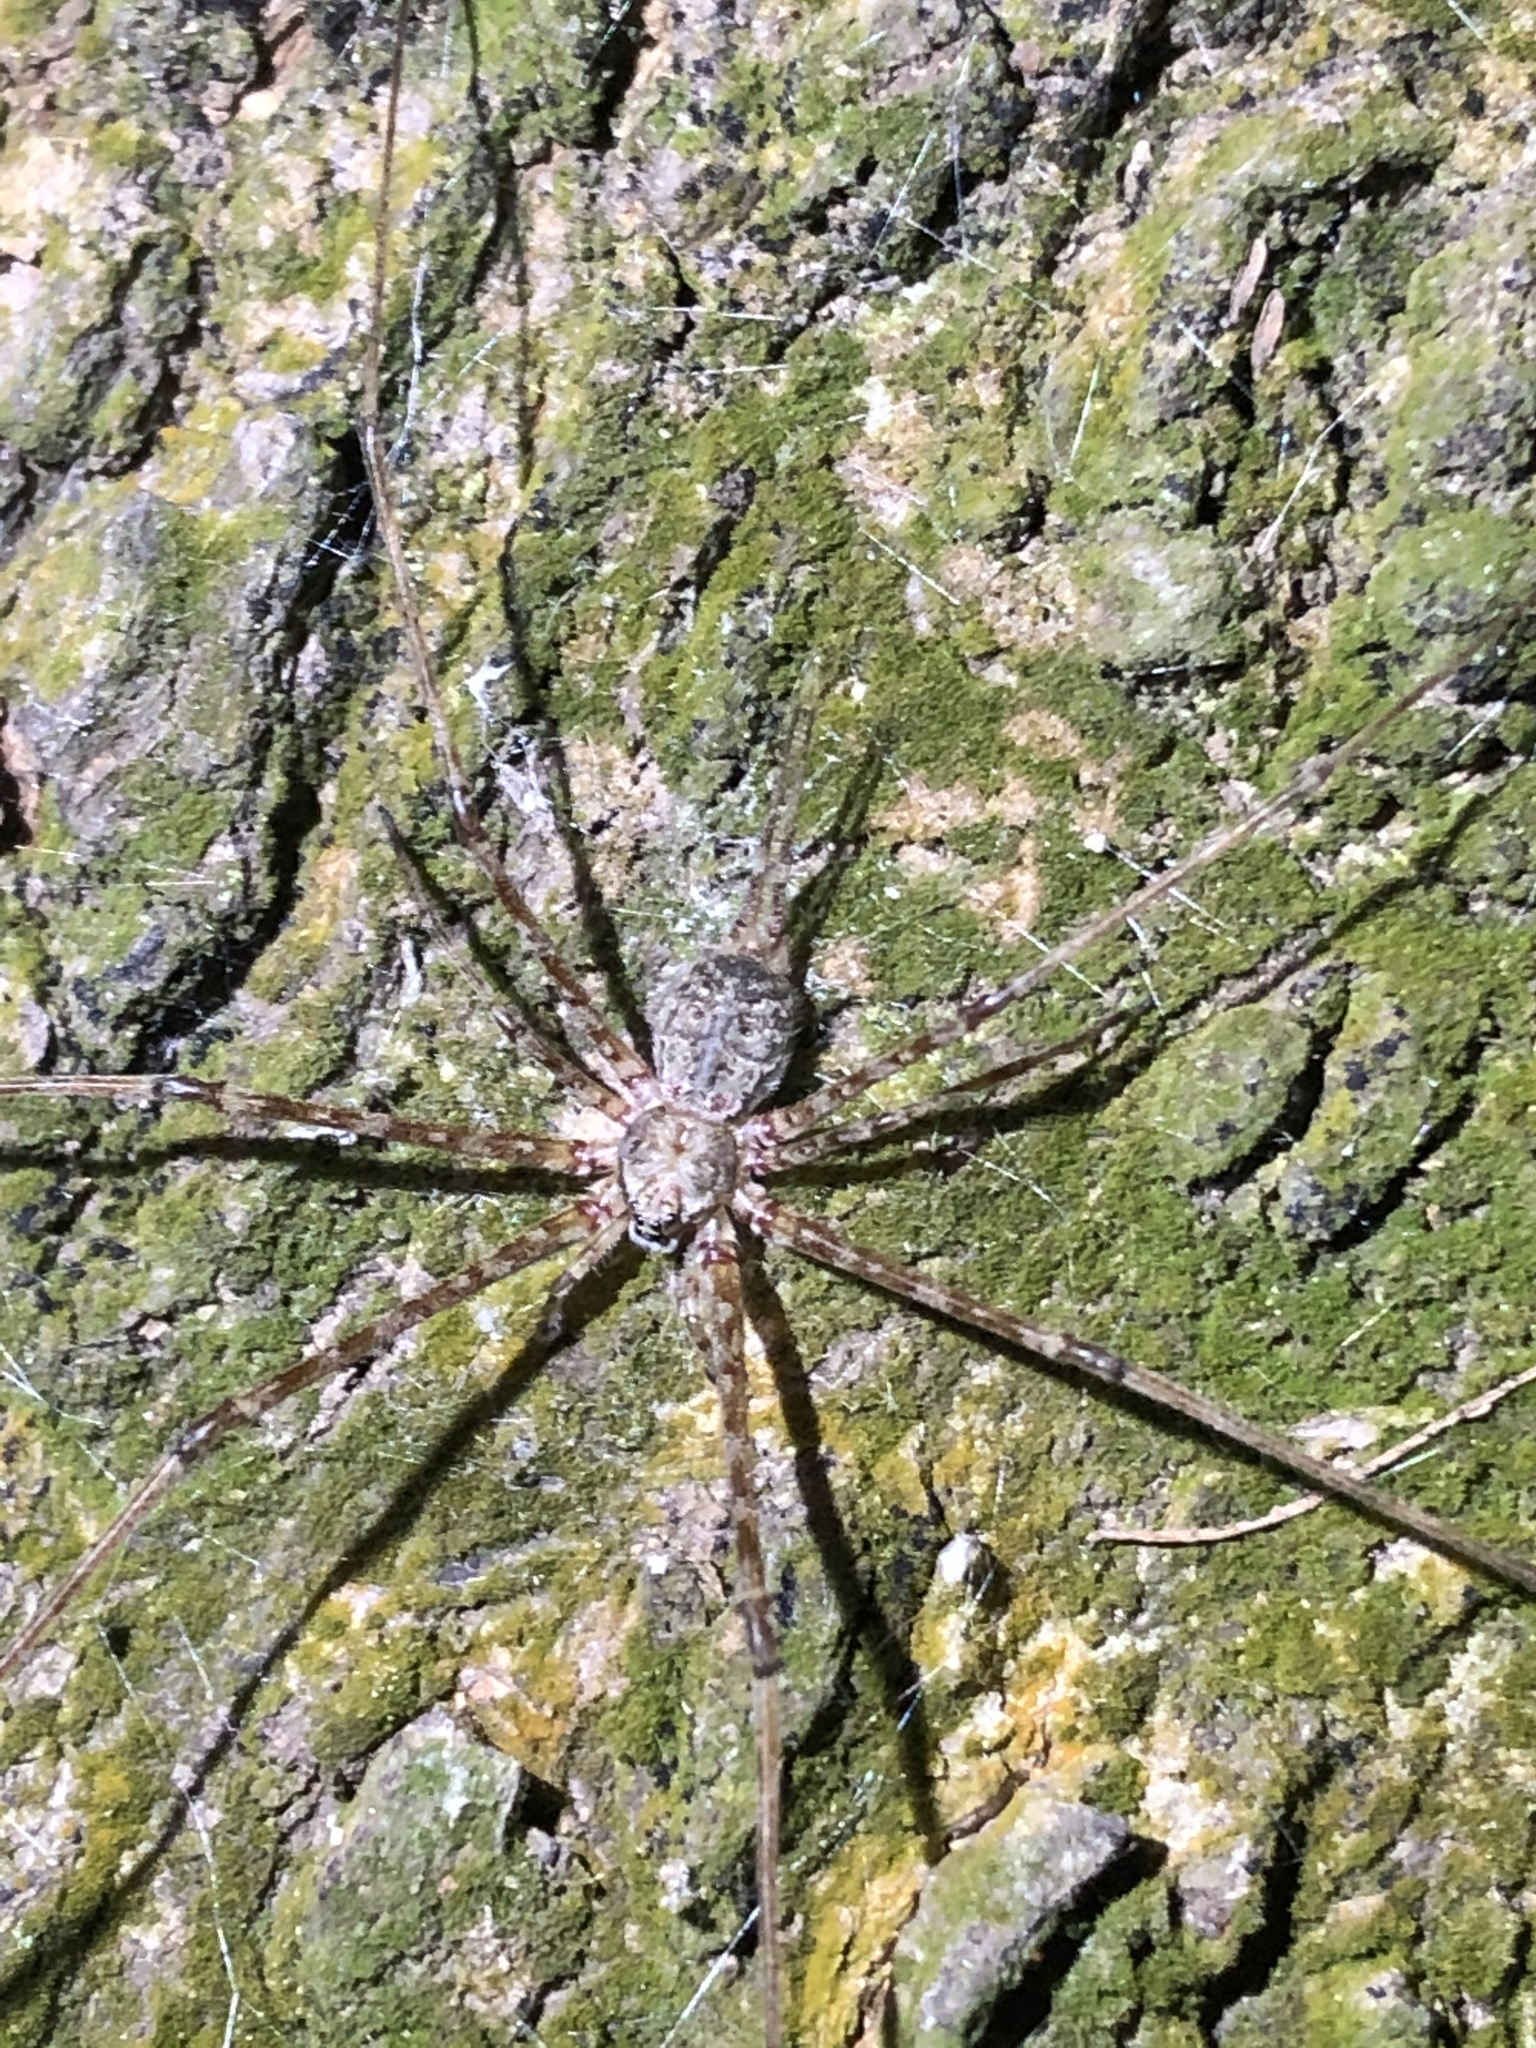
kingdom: Animalia
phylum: Arthropoda
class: Arachnida
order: Araneae
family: Hersiliidae
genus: Neotama
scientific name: Neotama mexicana
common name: Tree trunk spiders
